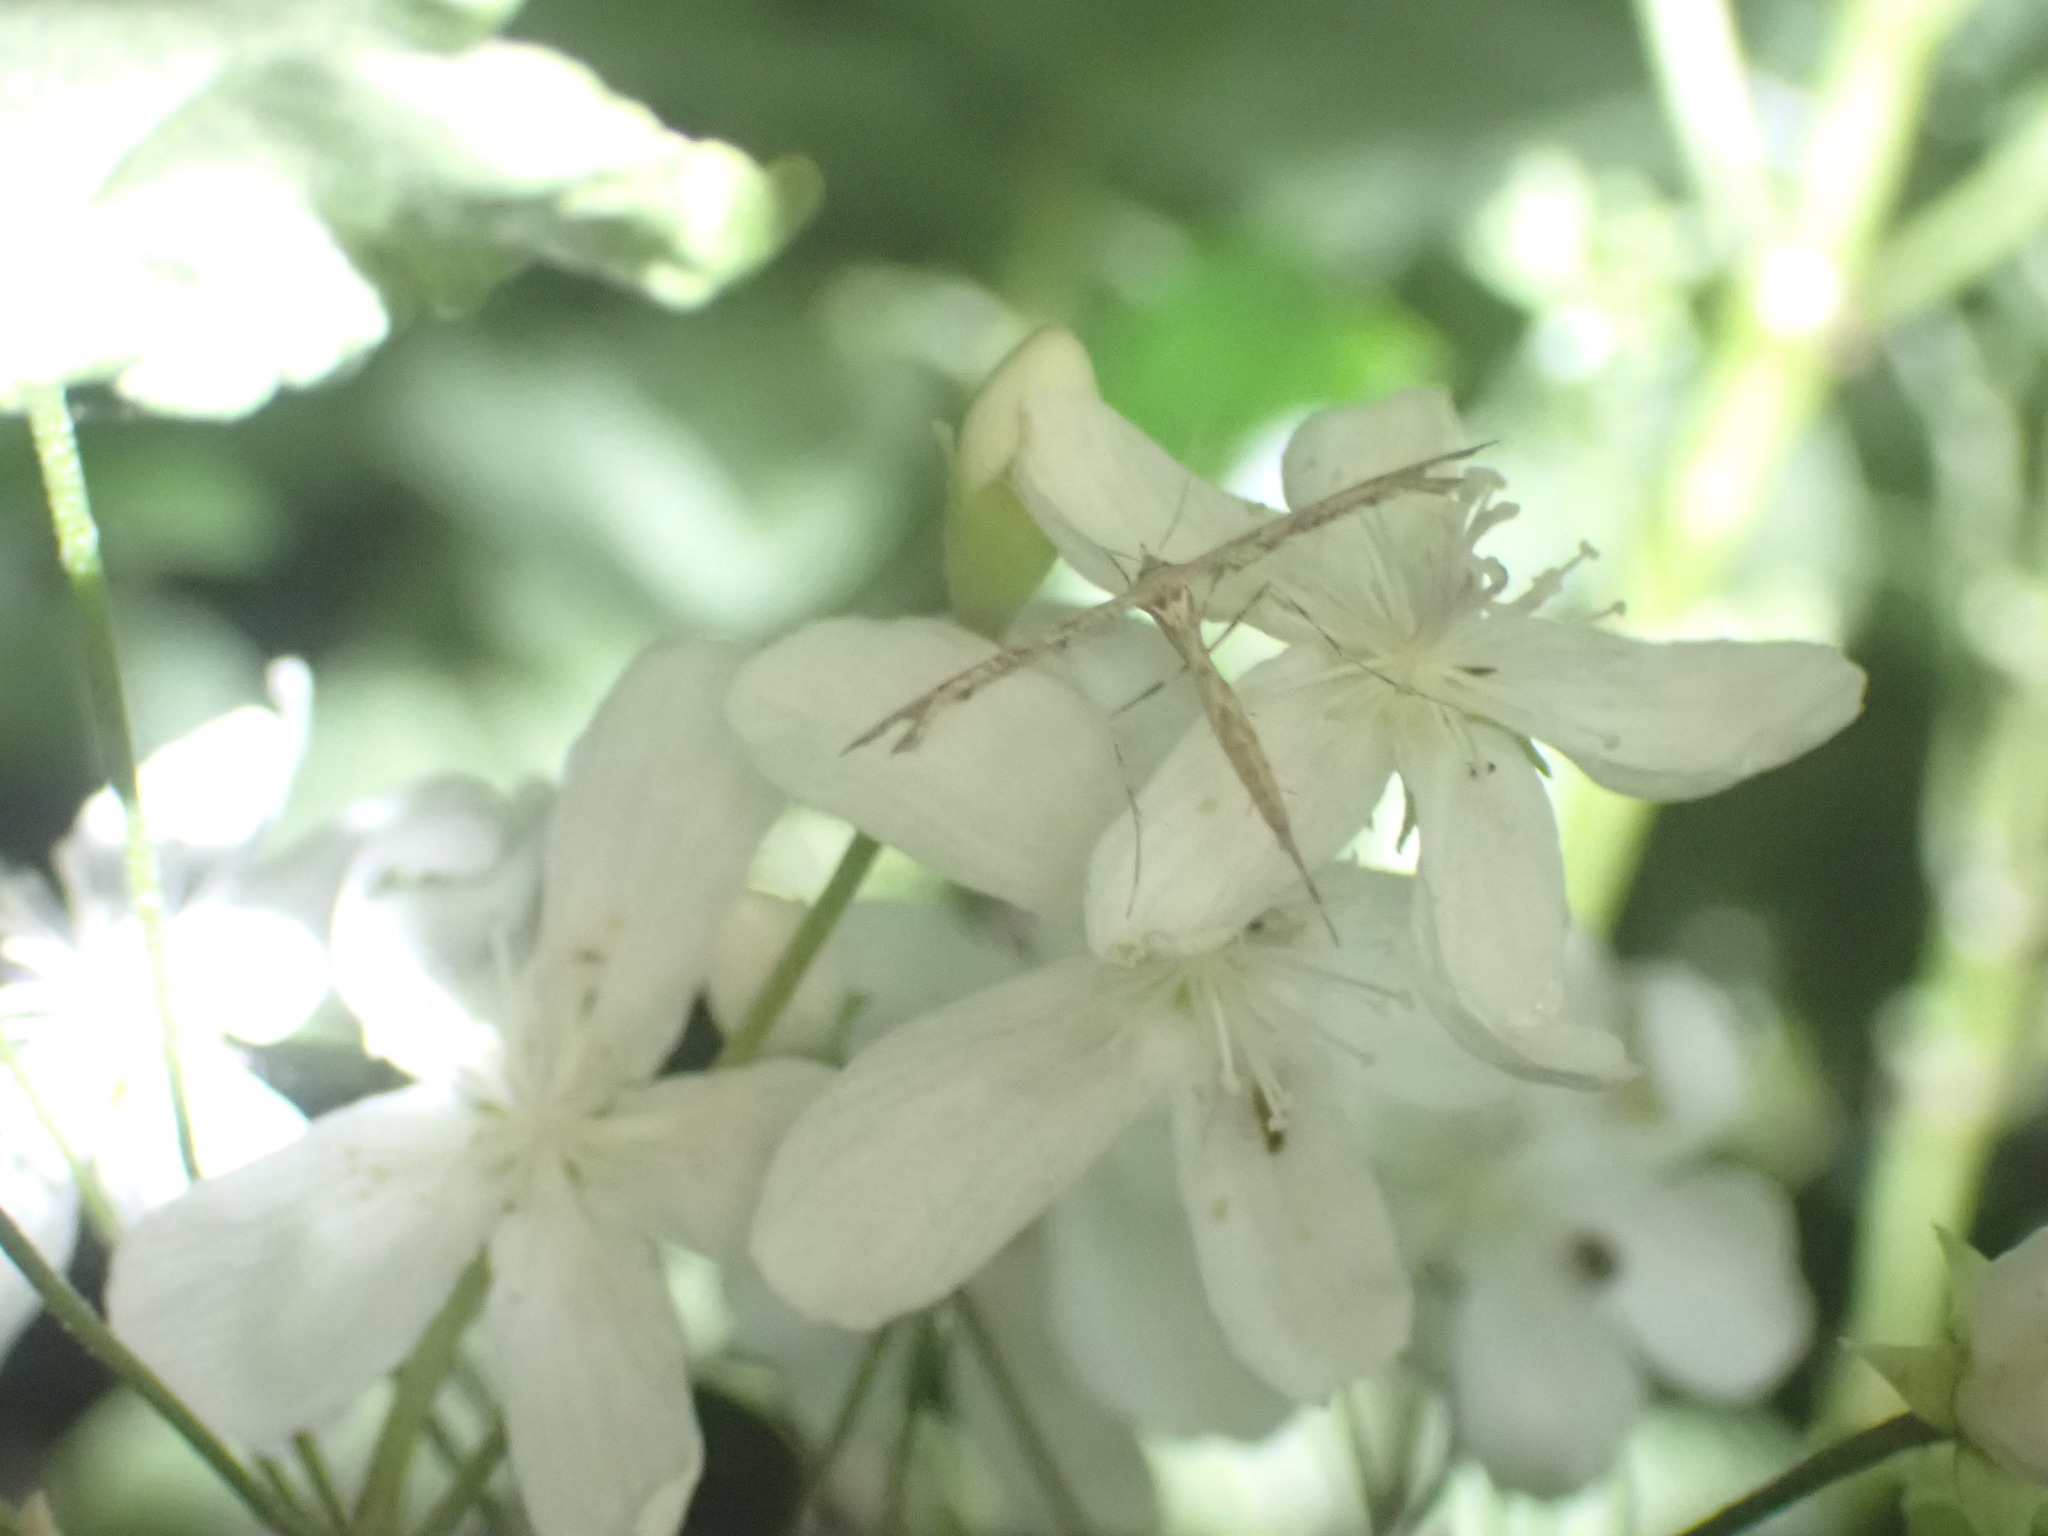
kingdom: Animalia
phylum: Arthropoda
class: Insecta
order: Lepidoptera
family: Pterophoridae
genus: Amblyptilia
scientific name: Amblyptilia repletalis
